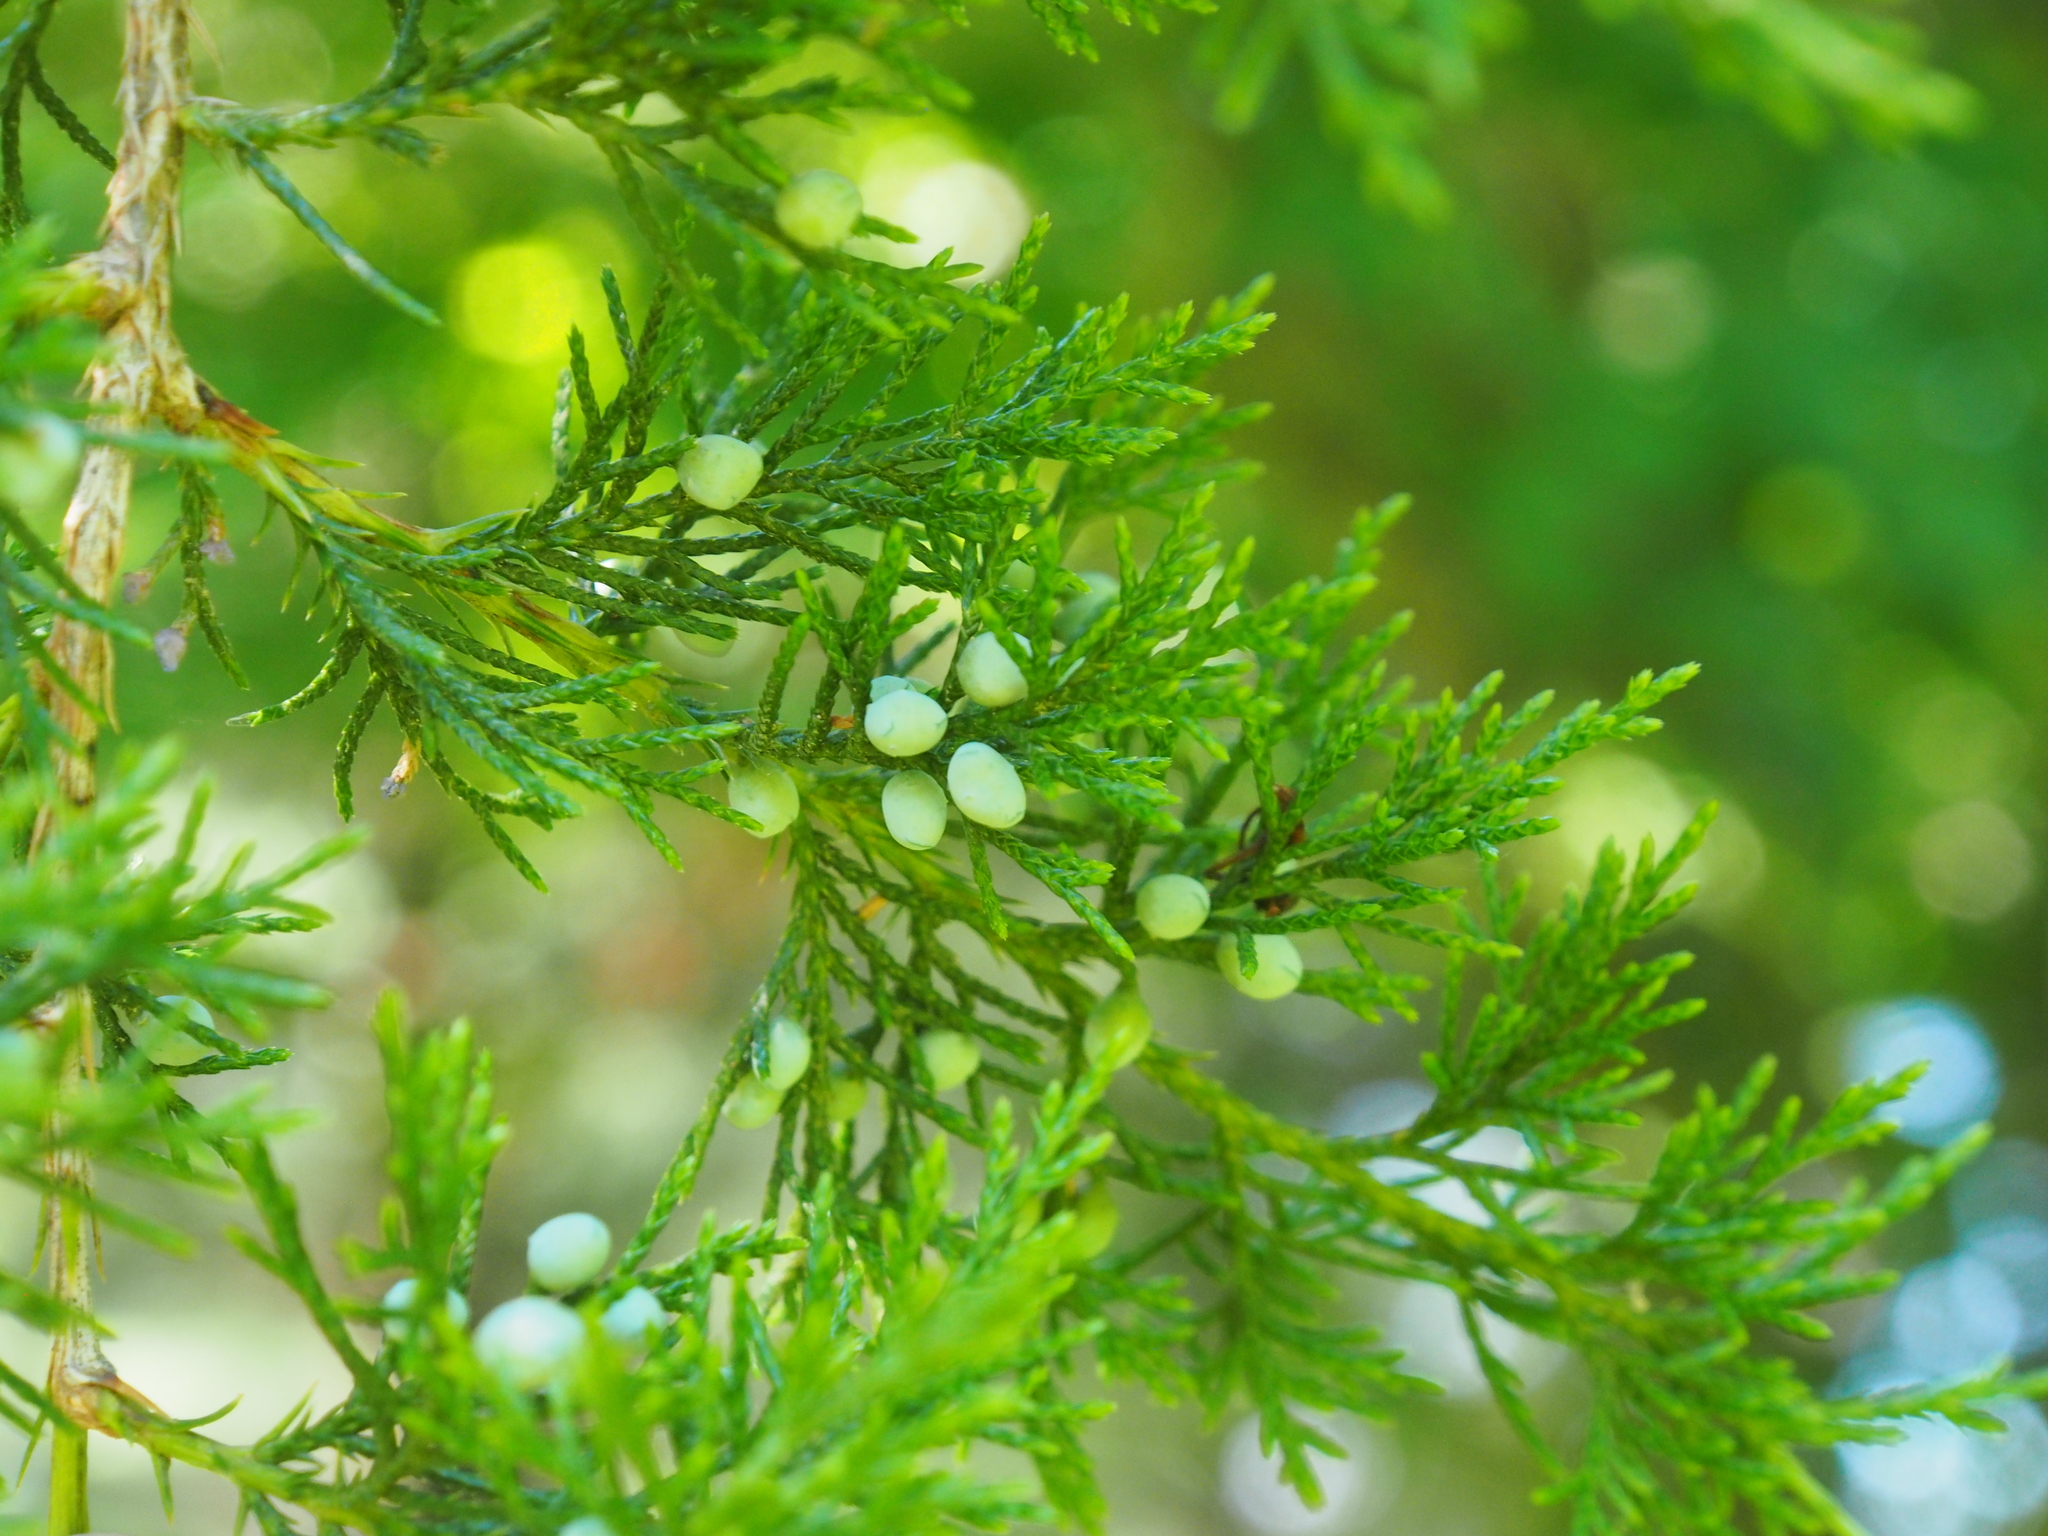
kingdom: Plantae
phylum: Tracheophyta
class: Pinopsida
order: Pinales
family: Cupressaceae
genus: Juniperus
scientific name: Juniperus virginiana
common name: Red juniper
